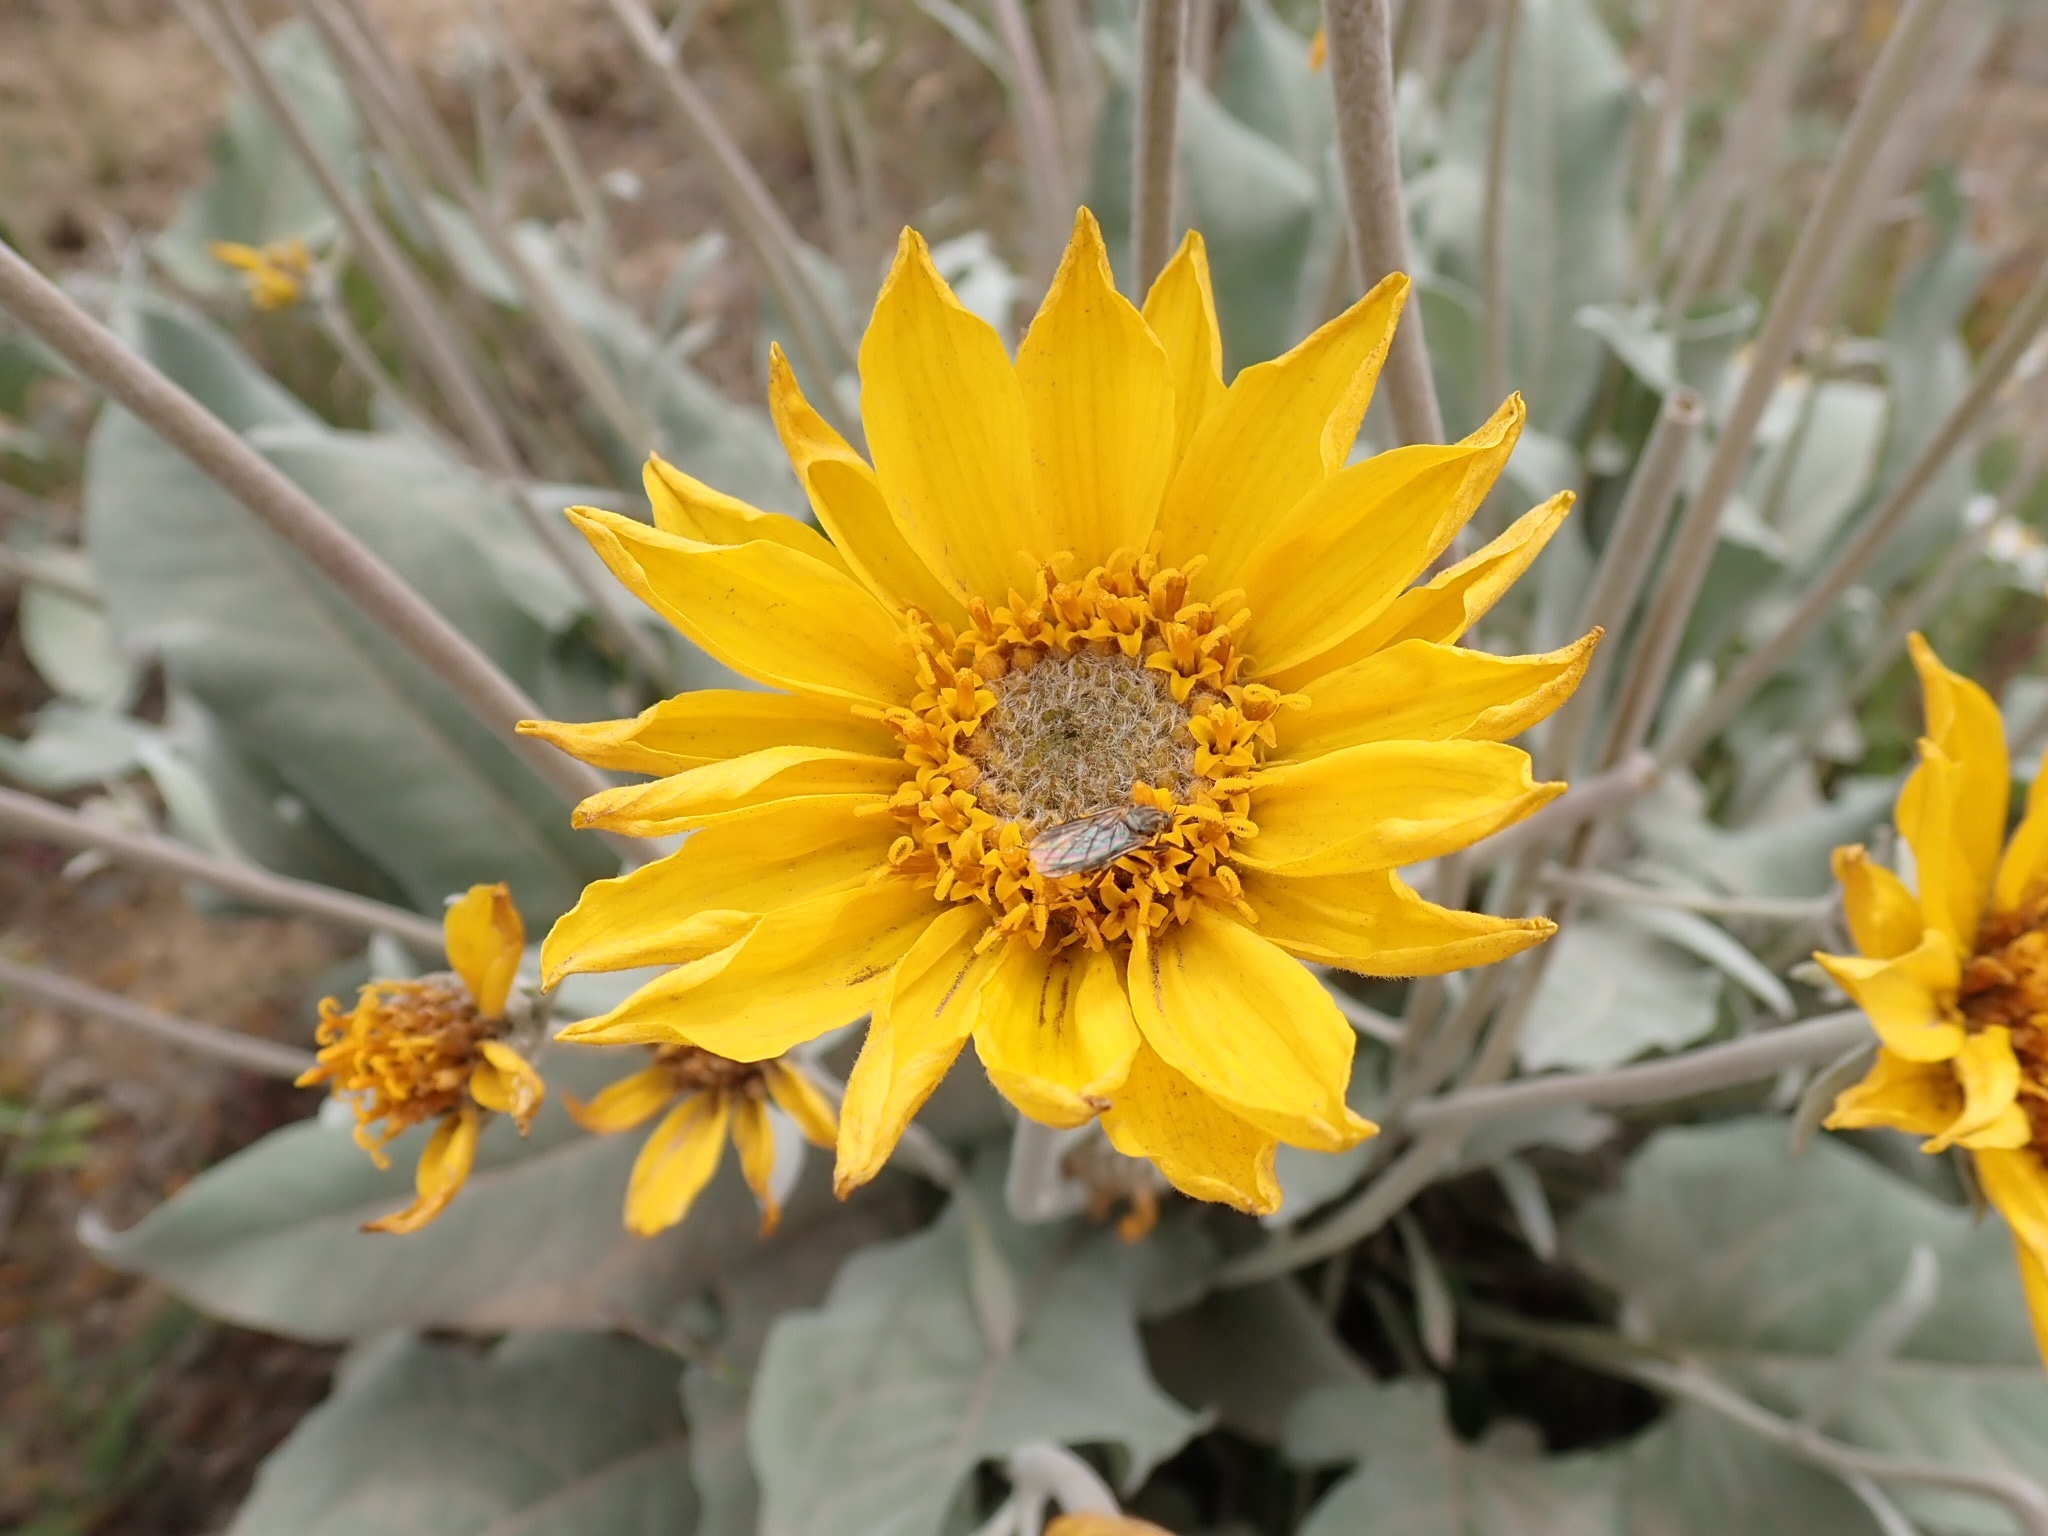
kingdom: Plantae
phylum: Tracheophyta
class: Magnoliopsida
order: Asterales
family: Asteraceae
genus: Wyethia
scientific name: Wyethia sagittata
